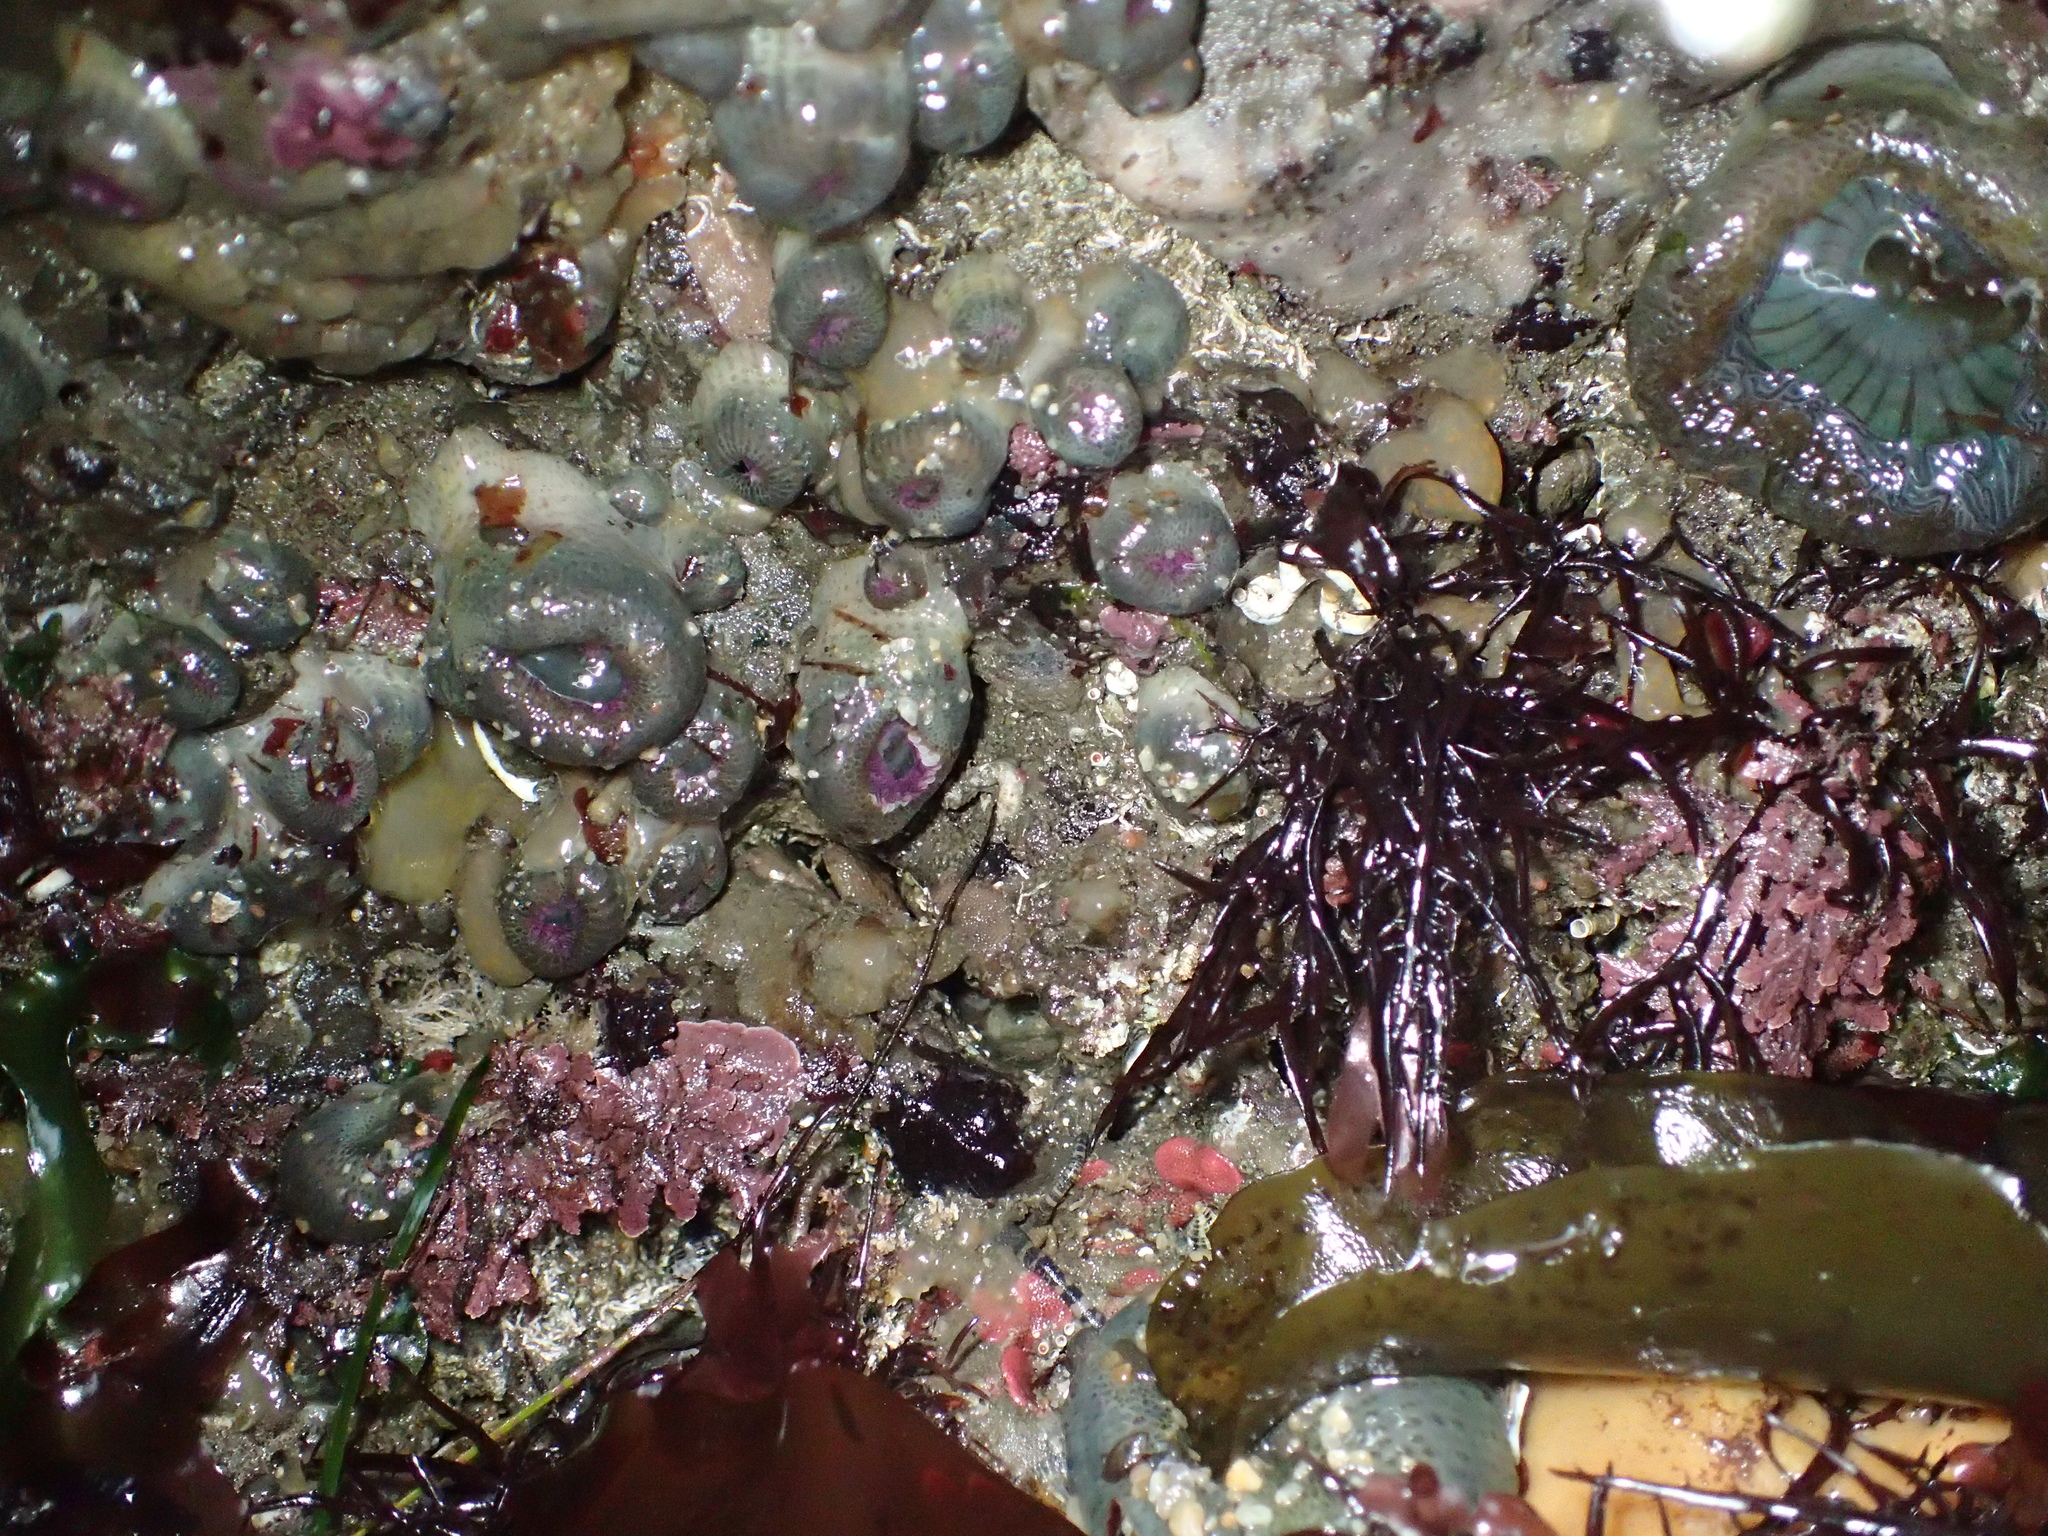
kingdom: Animalia
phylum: Cnidaria
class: Anthozoa
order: Actiniaria
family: Actiniidae
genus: Anthopleura
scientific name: Anthopleura elegantissima
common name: Clonal anemone
